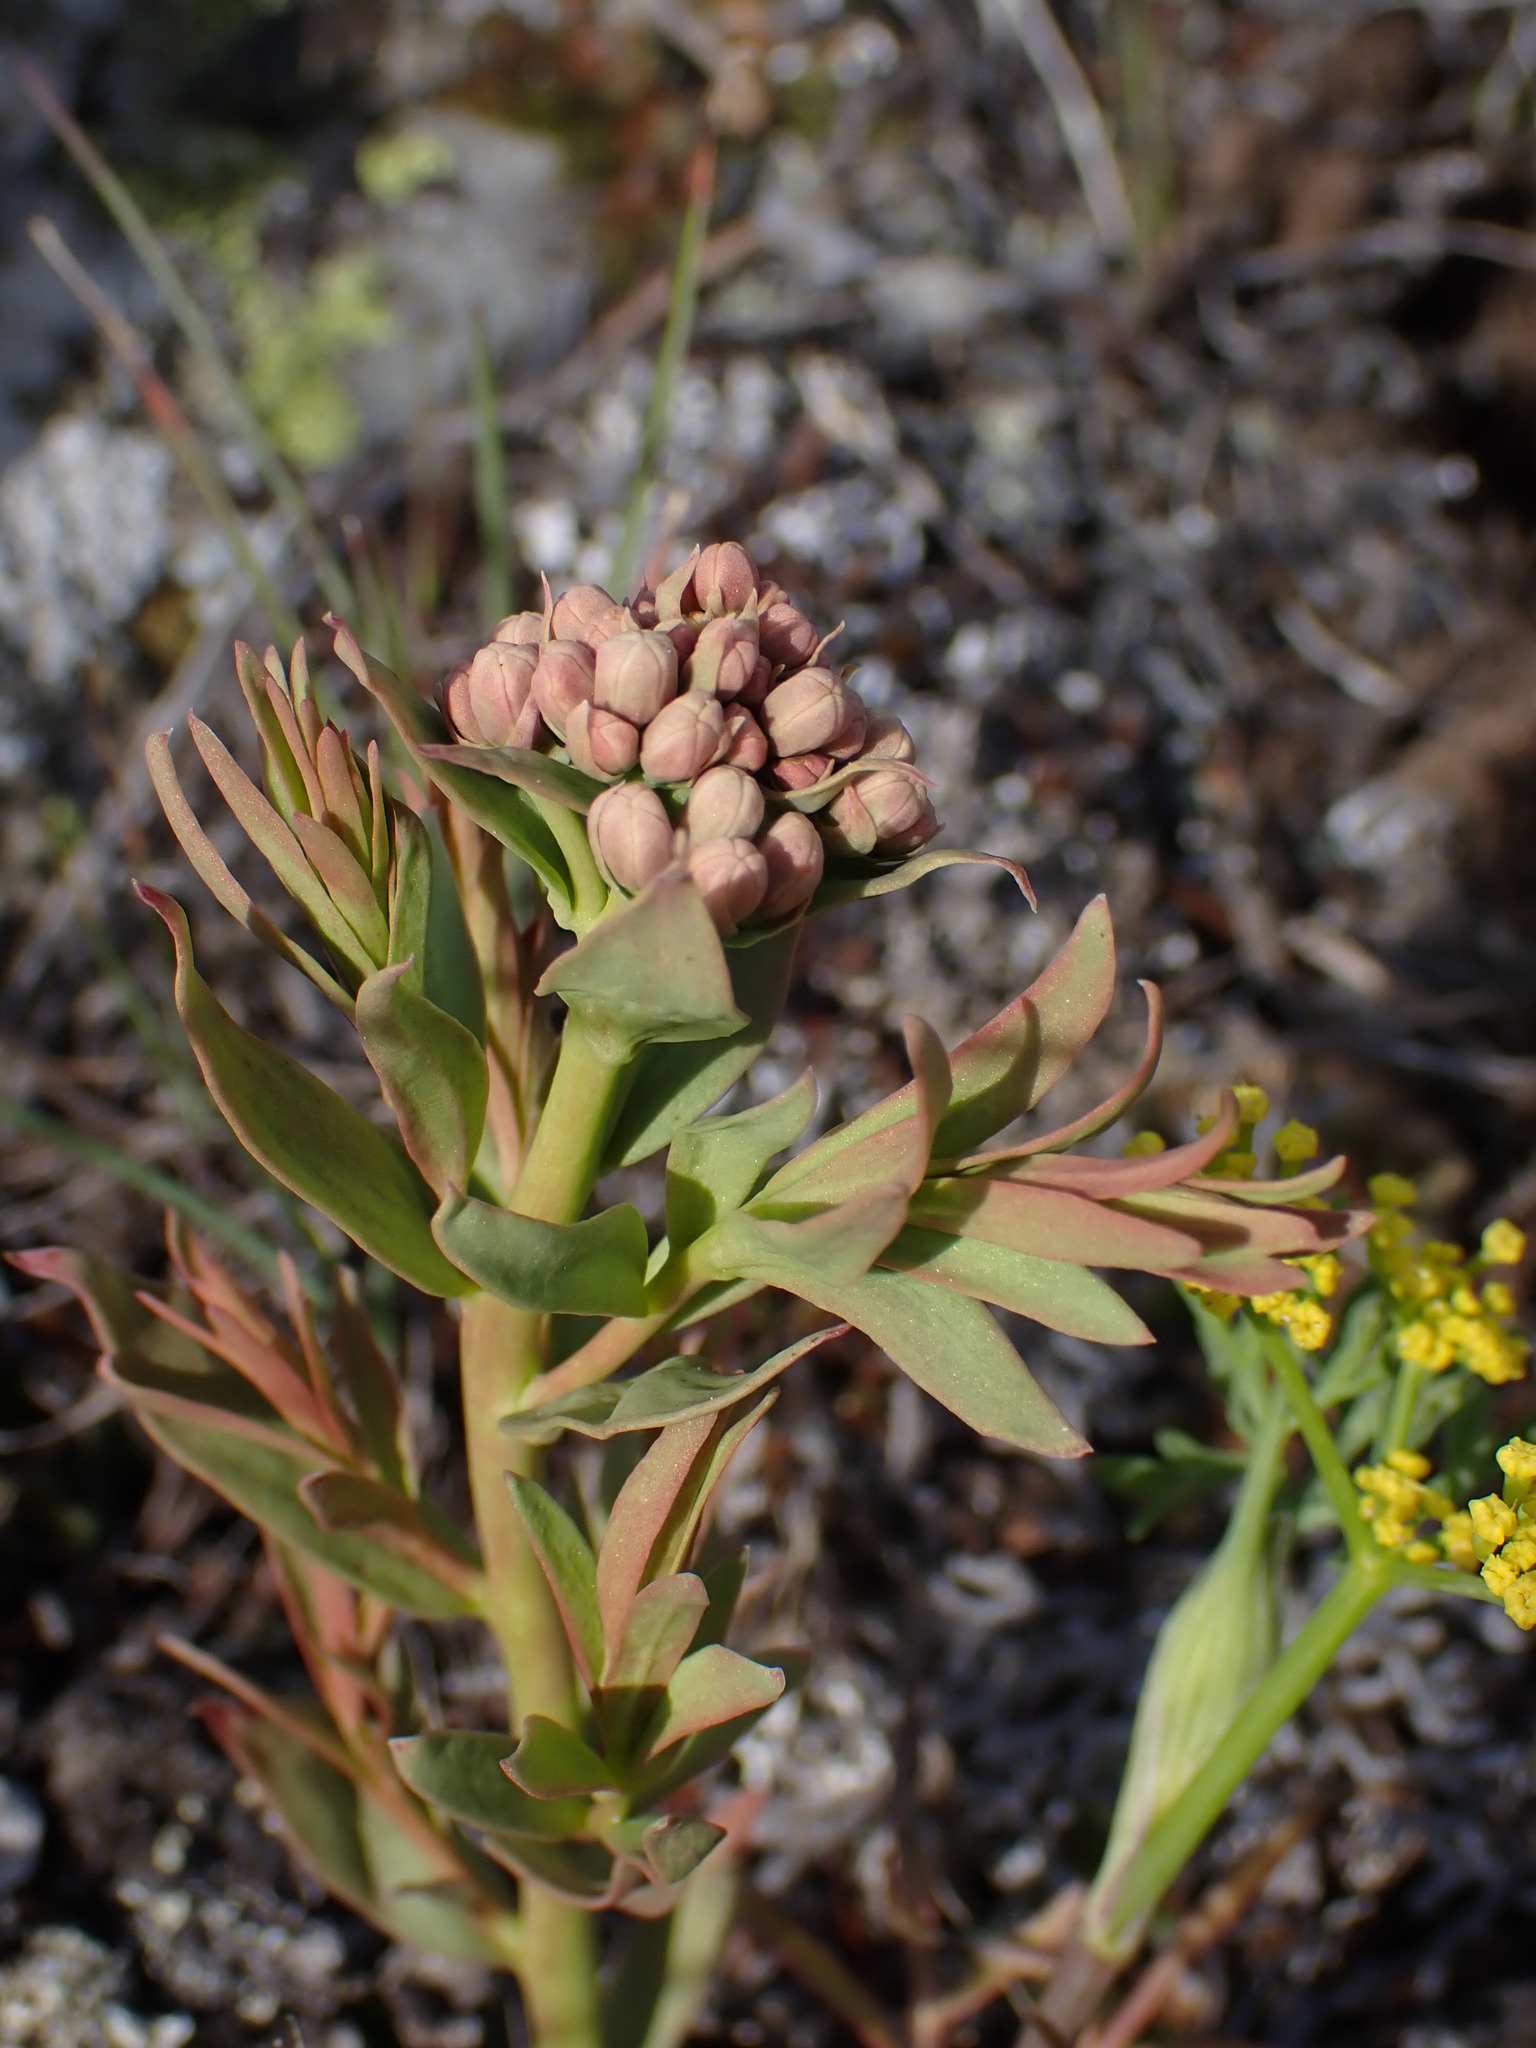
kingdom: Plantae
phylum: Tracheophyta
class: Magnoliopsida
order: Santalales
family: Comandraceae
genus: Comandra
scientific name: Comandra umbellata
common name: Bastard toadflax
